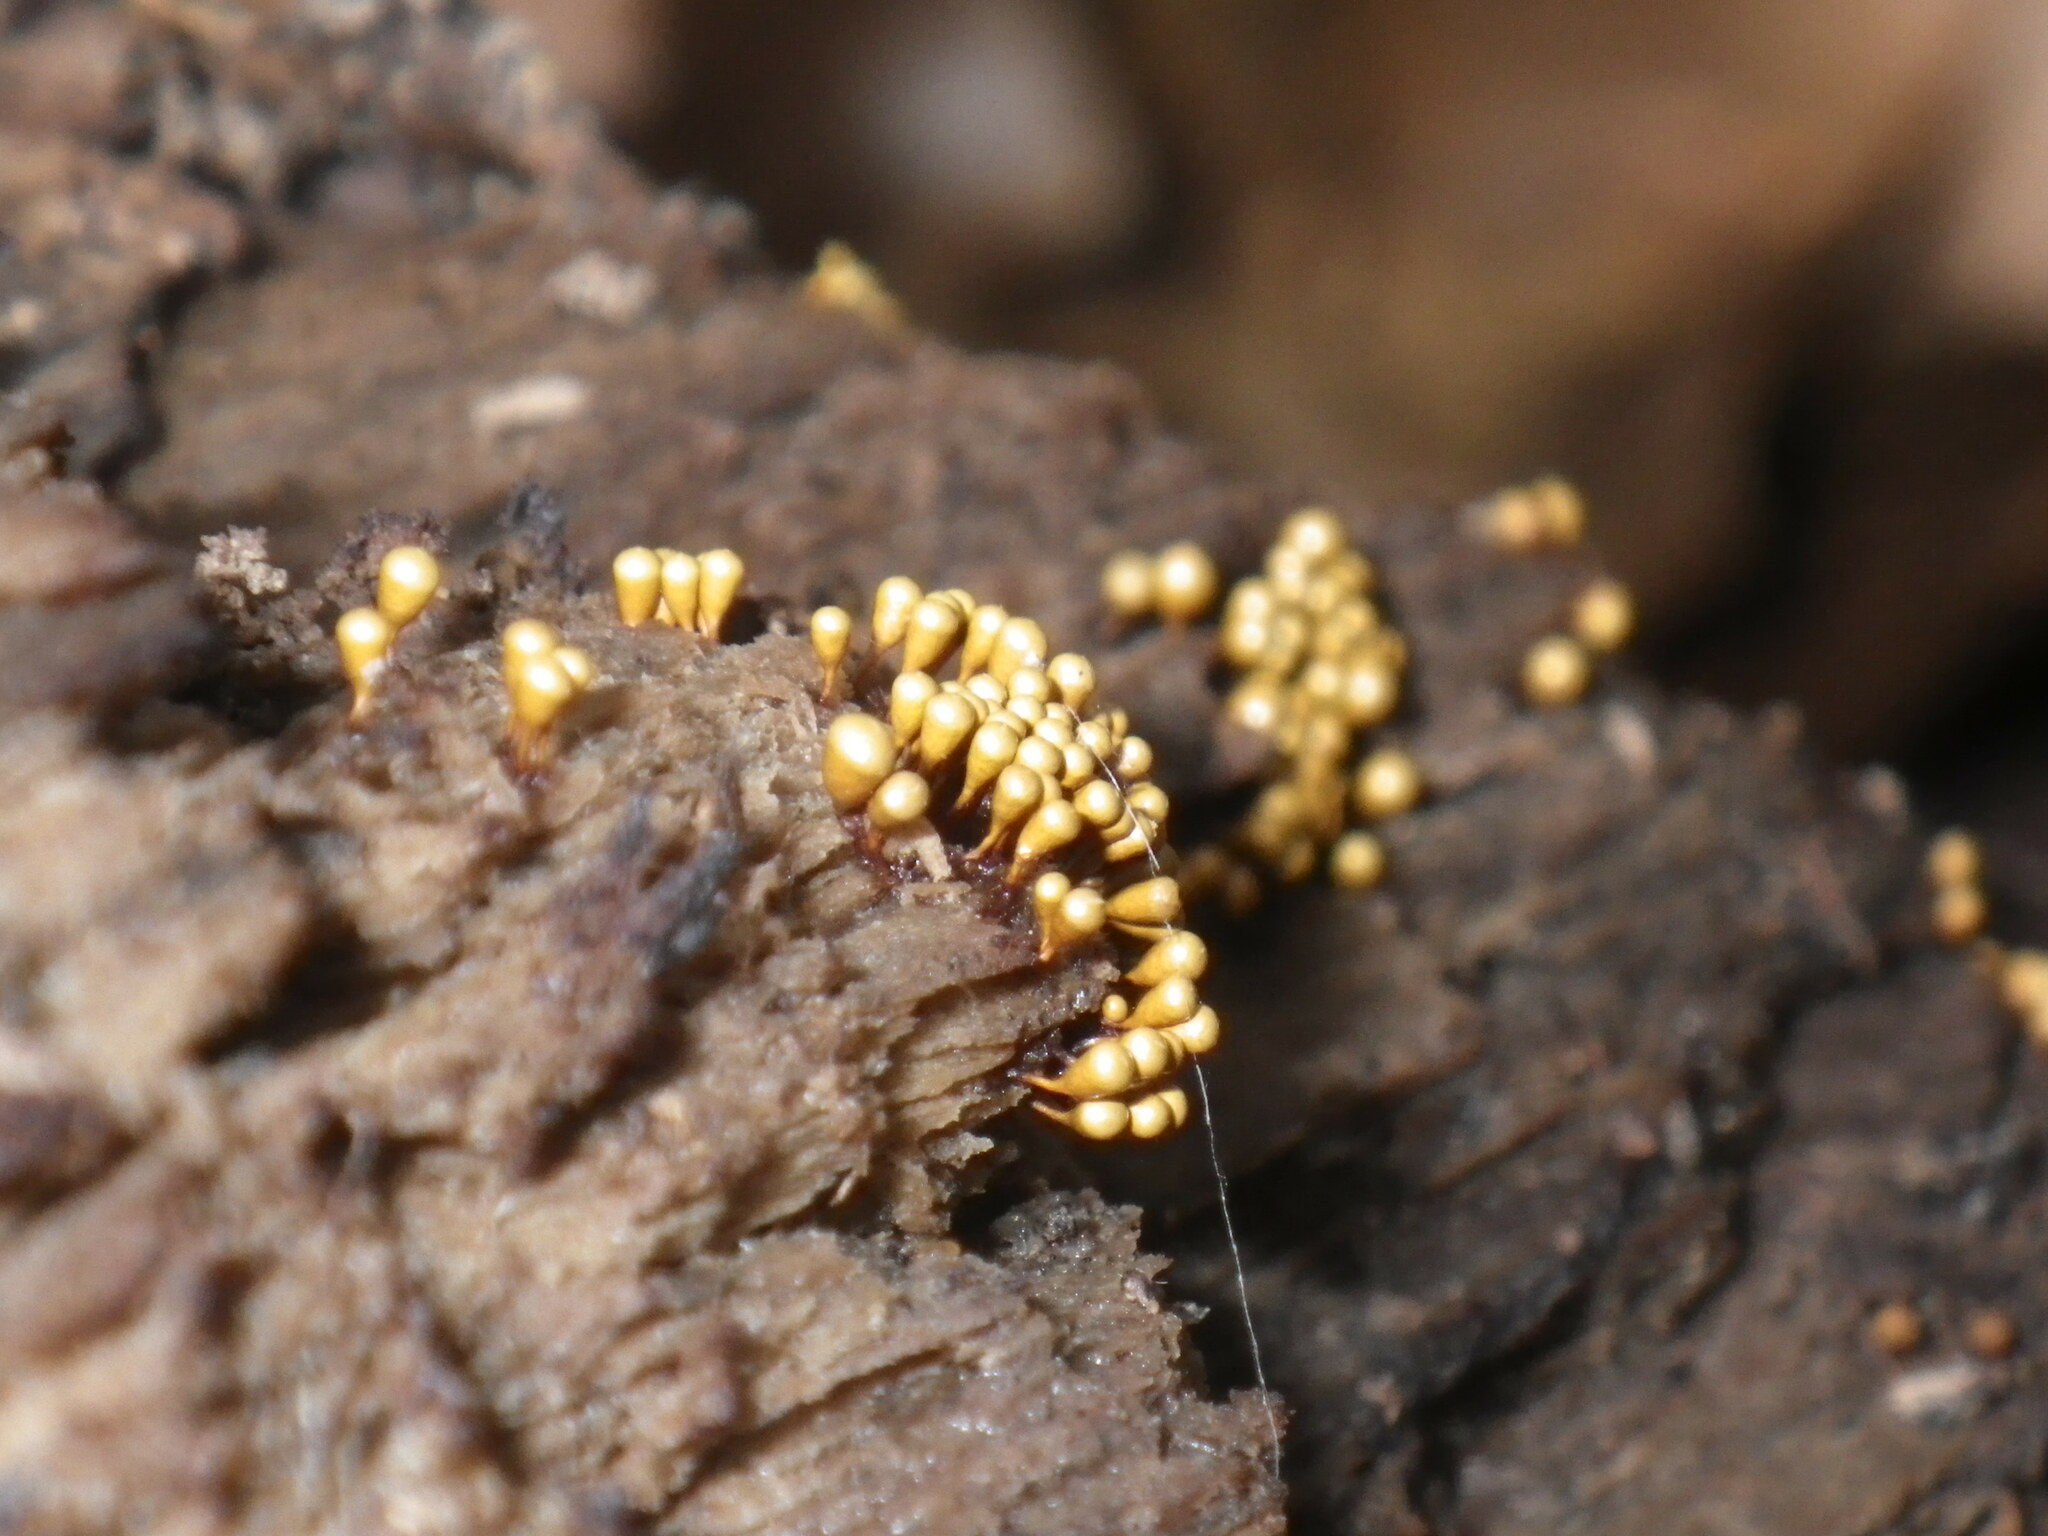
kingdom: Protozoa
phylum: Mycetozoa
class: Myxomycetes
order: Trichiales
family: Arcyriaceae
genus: Hemitrichia
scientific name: Hemitrichia calyculata
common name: Push pin slime mold
